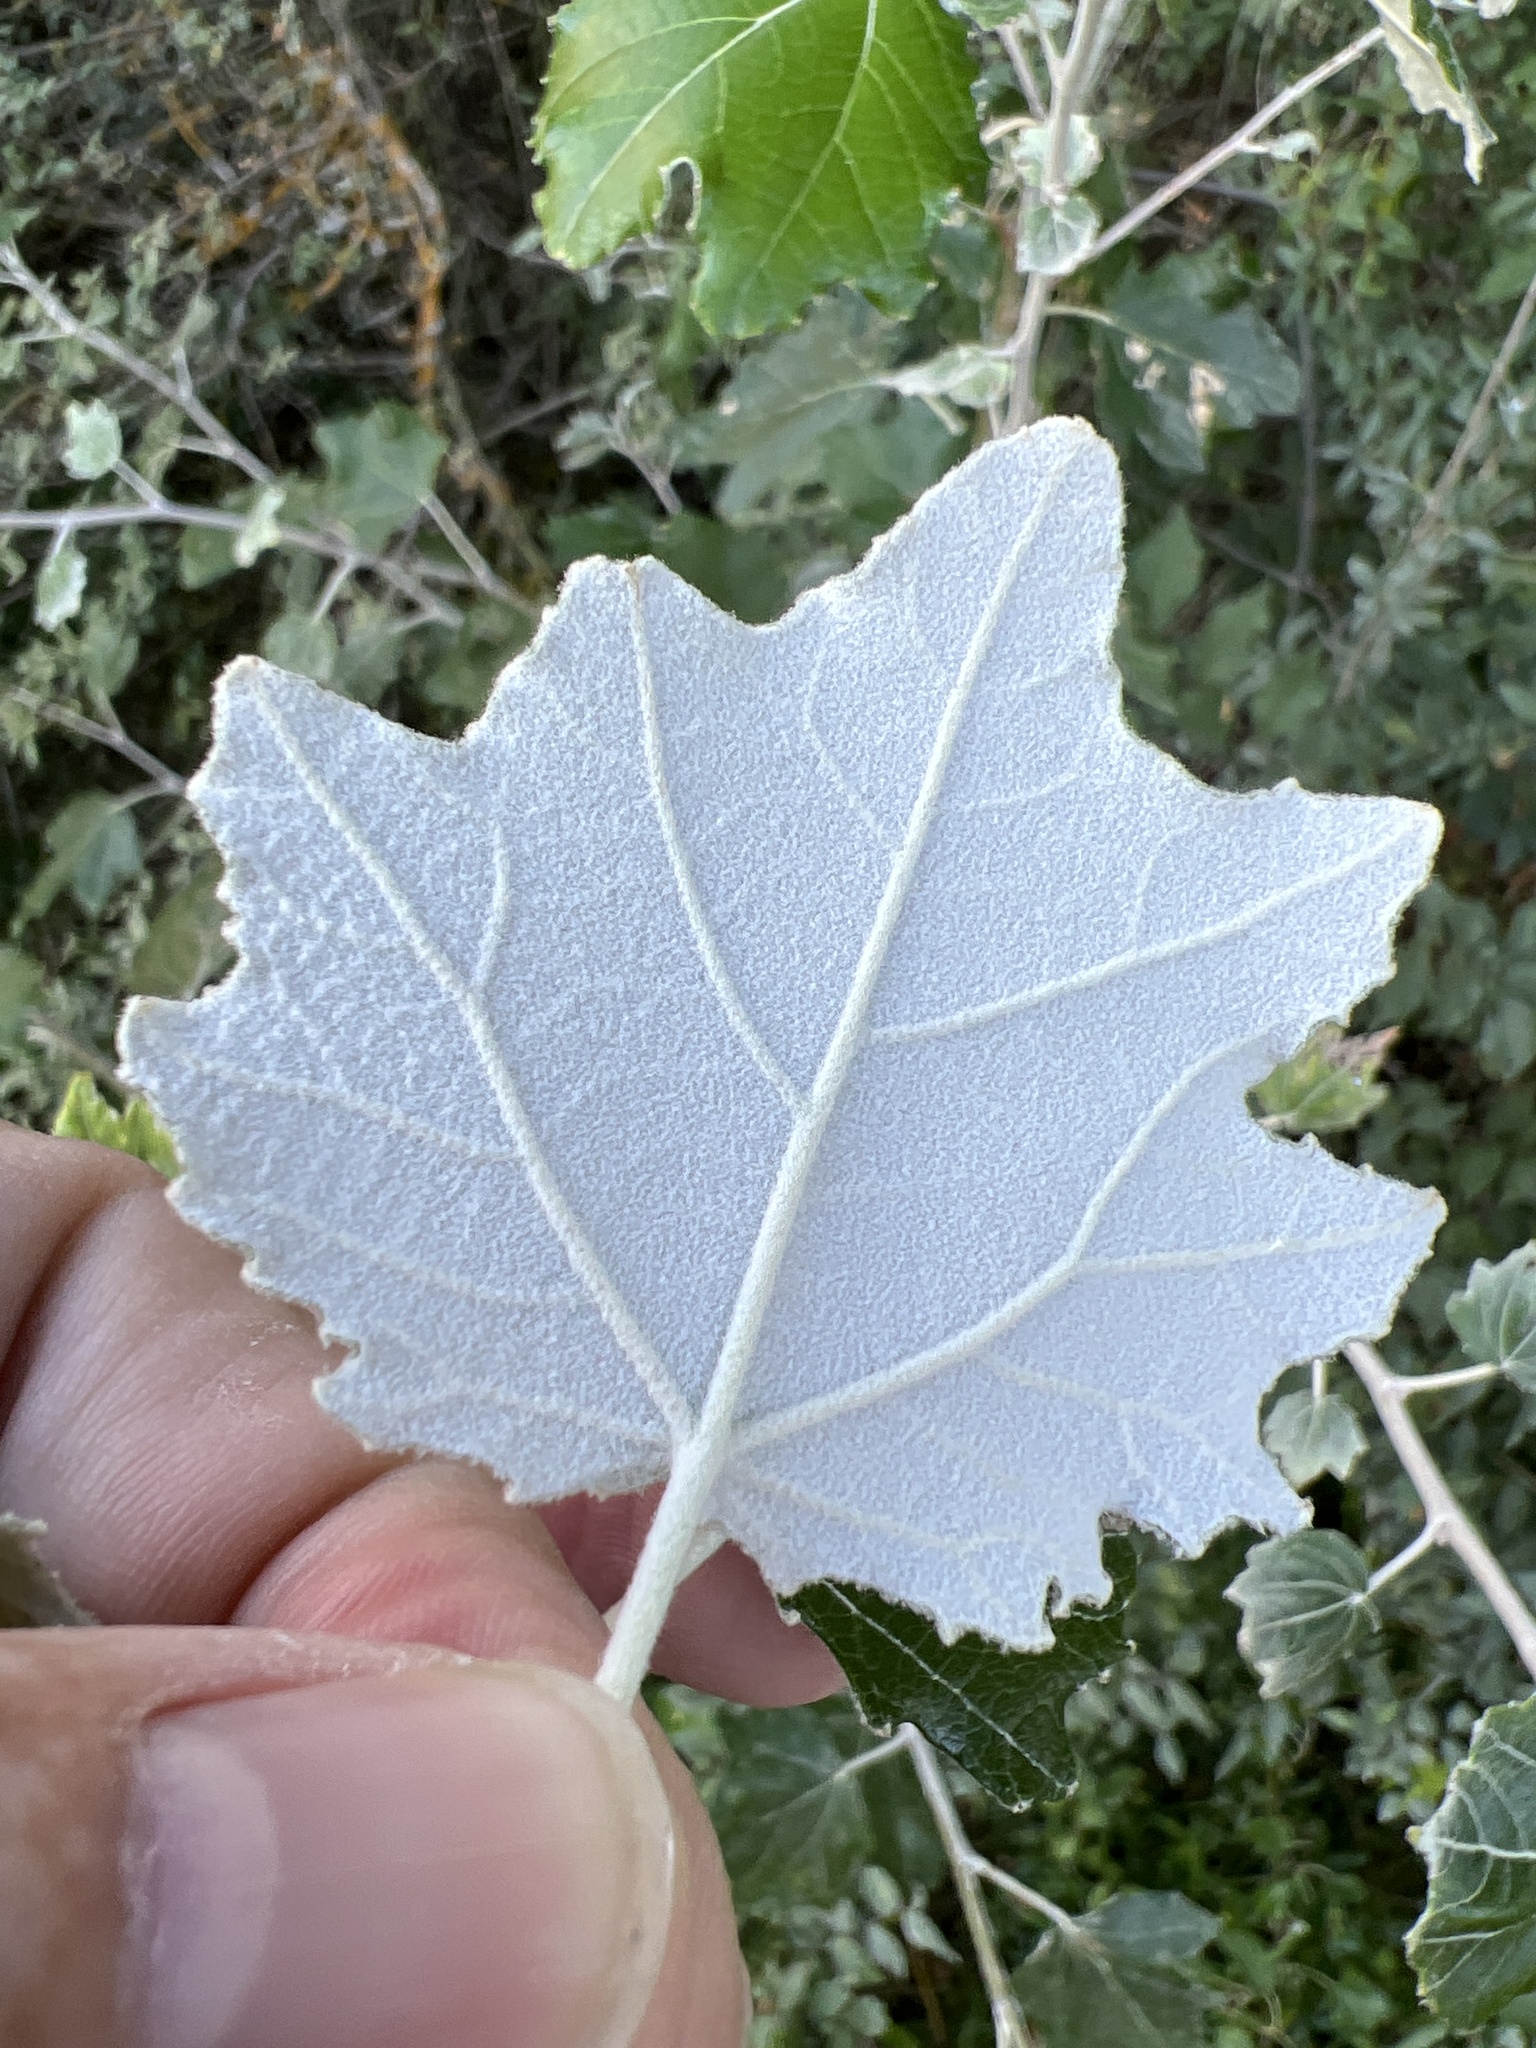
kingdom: Plantae
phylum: Tracheophyta
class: Magnoliopsida
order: Malpighiales
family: Salicaceae
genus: Populus
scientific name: Populus alba
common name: White poplar
